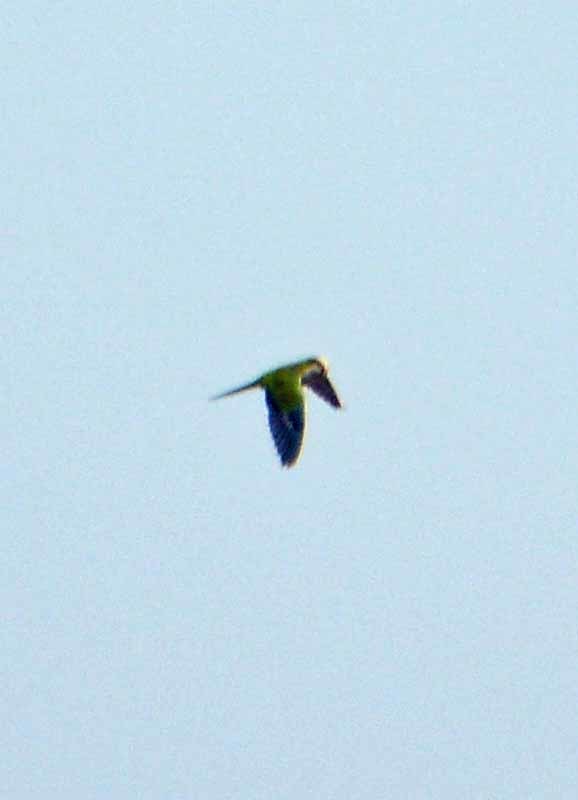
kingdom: Animalia
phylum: Chordata
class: Aves
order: Psittaciformes
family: Psittacidae
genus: Myiopsitta
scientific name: Myiopsitta monachus
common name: Monk parakeet
